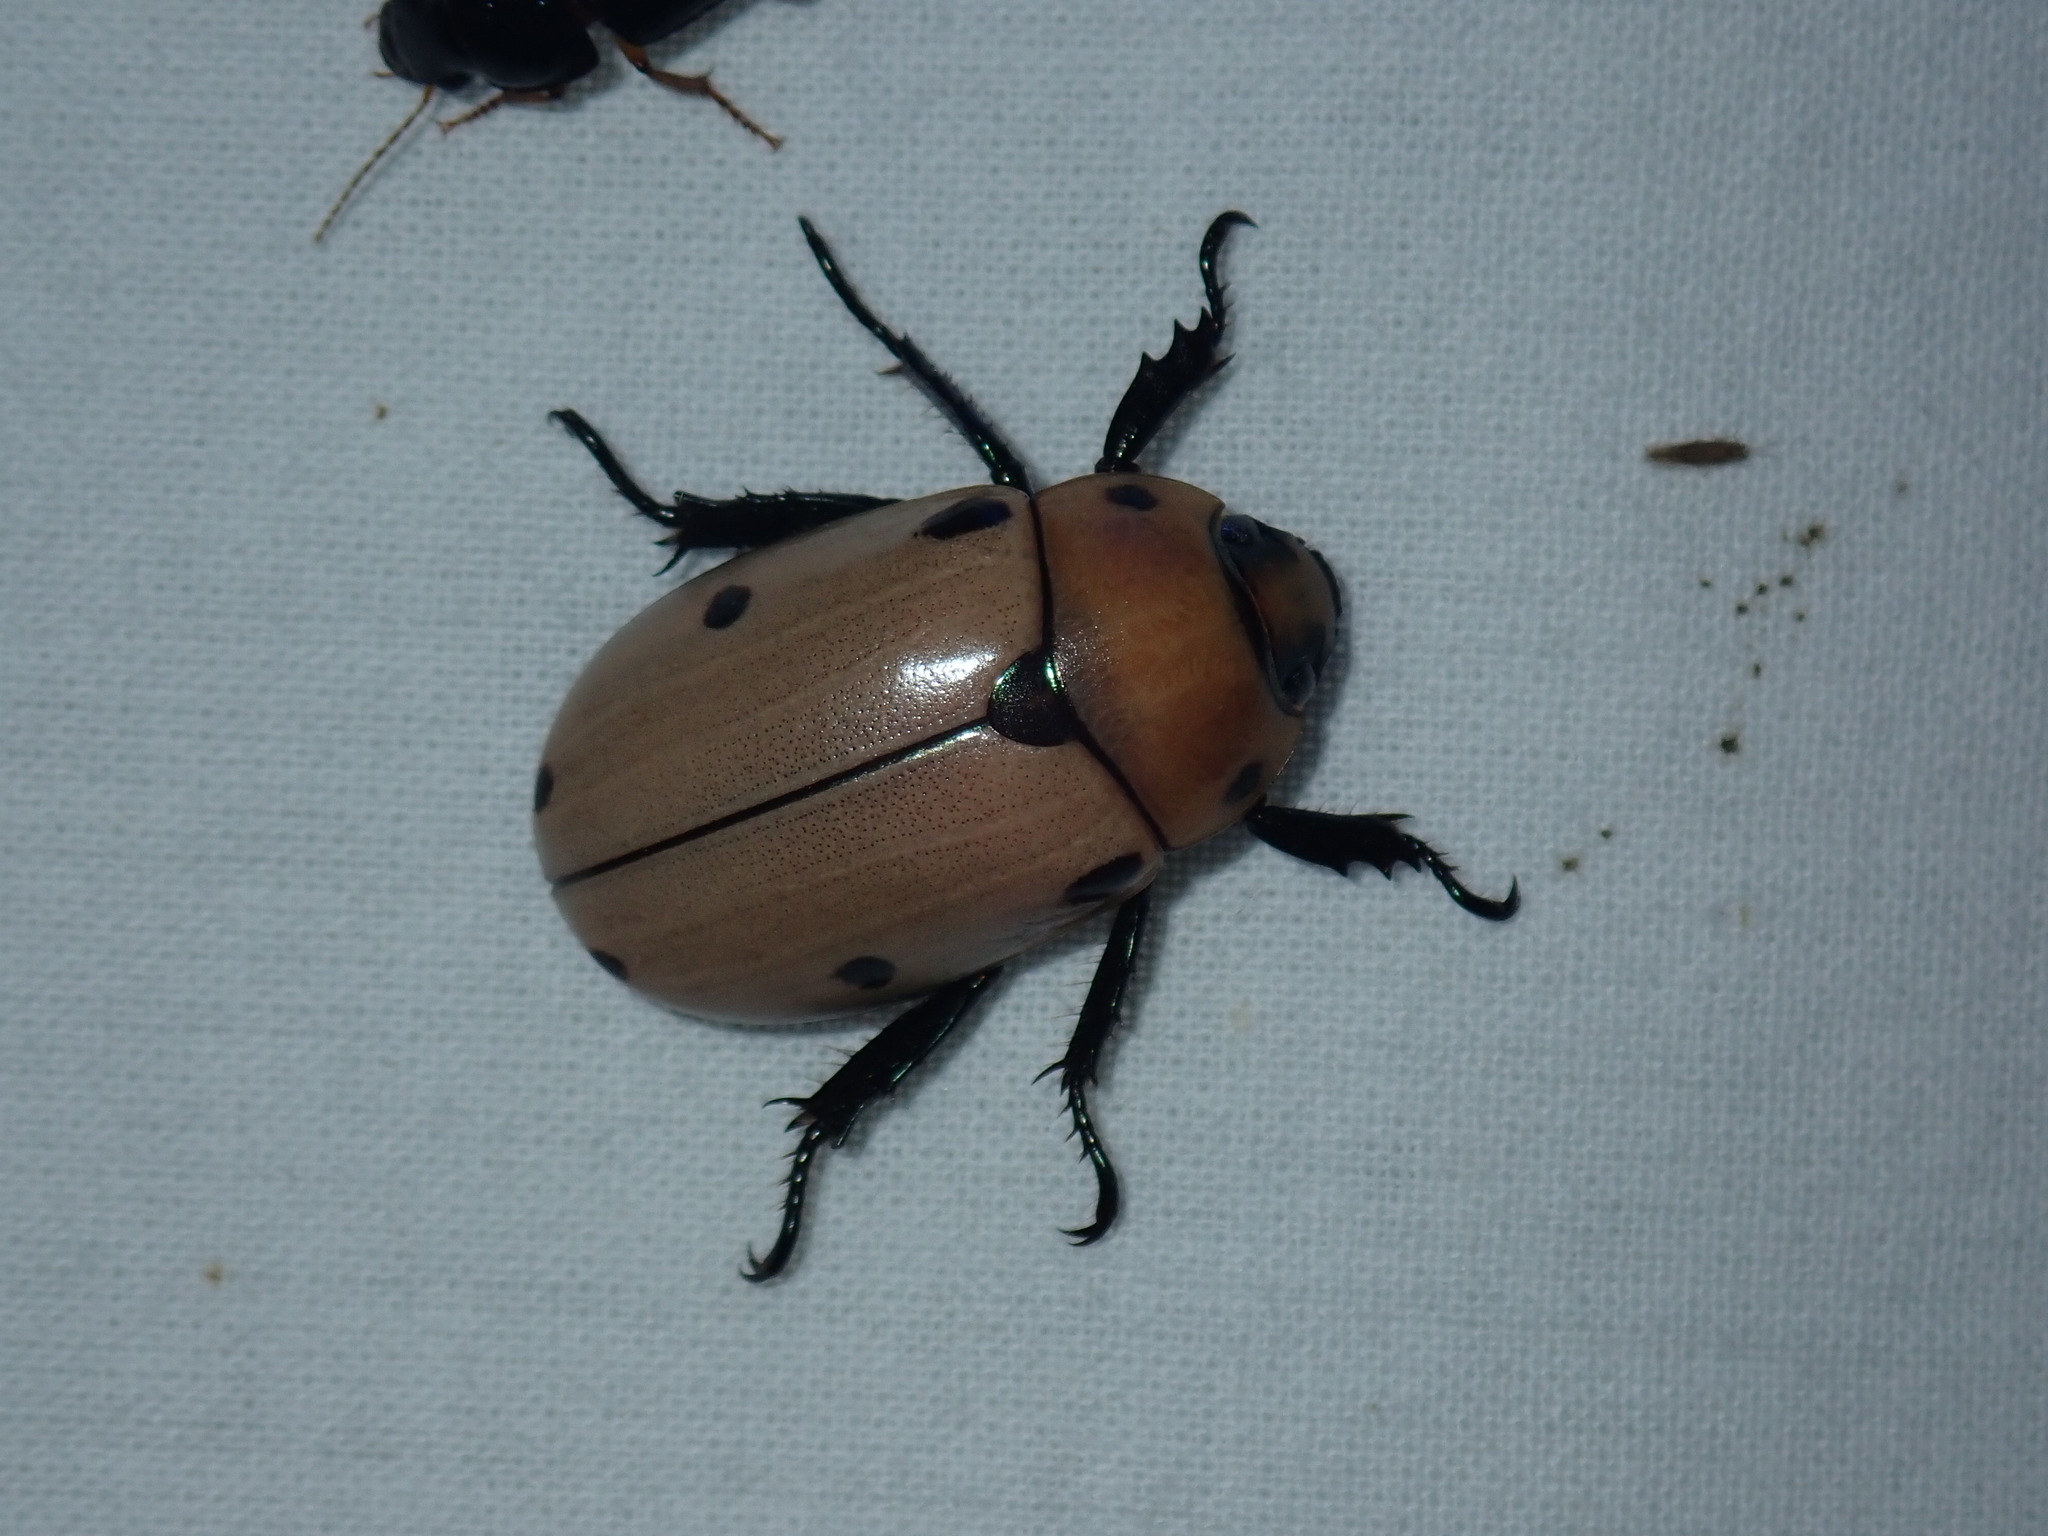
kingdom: Animalia
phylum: Arthropoda
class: Insecta
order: Coleoptera
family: Scarabaeidae
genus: Pelidnota
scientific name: Pelidnota punctata
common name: Grapevine beetle
